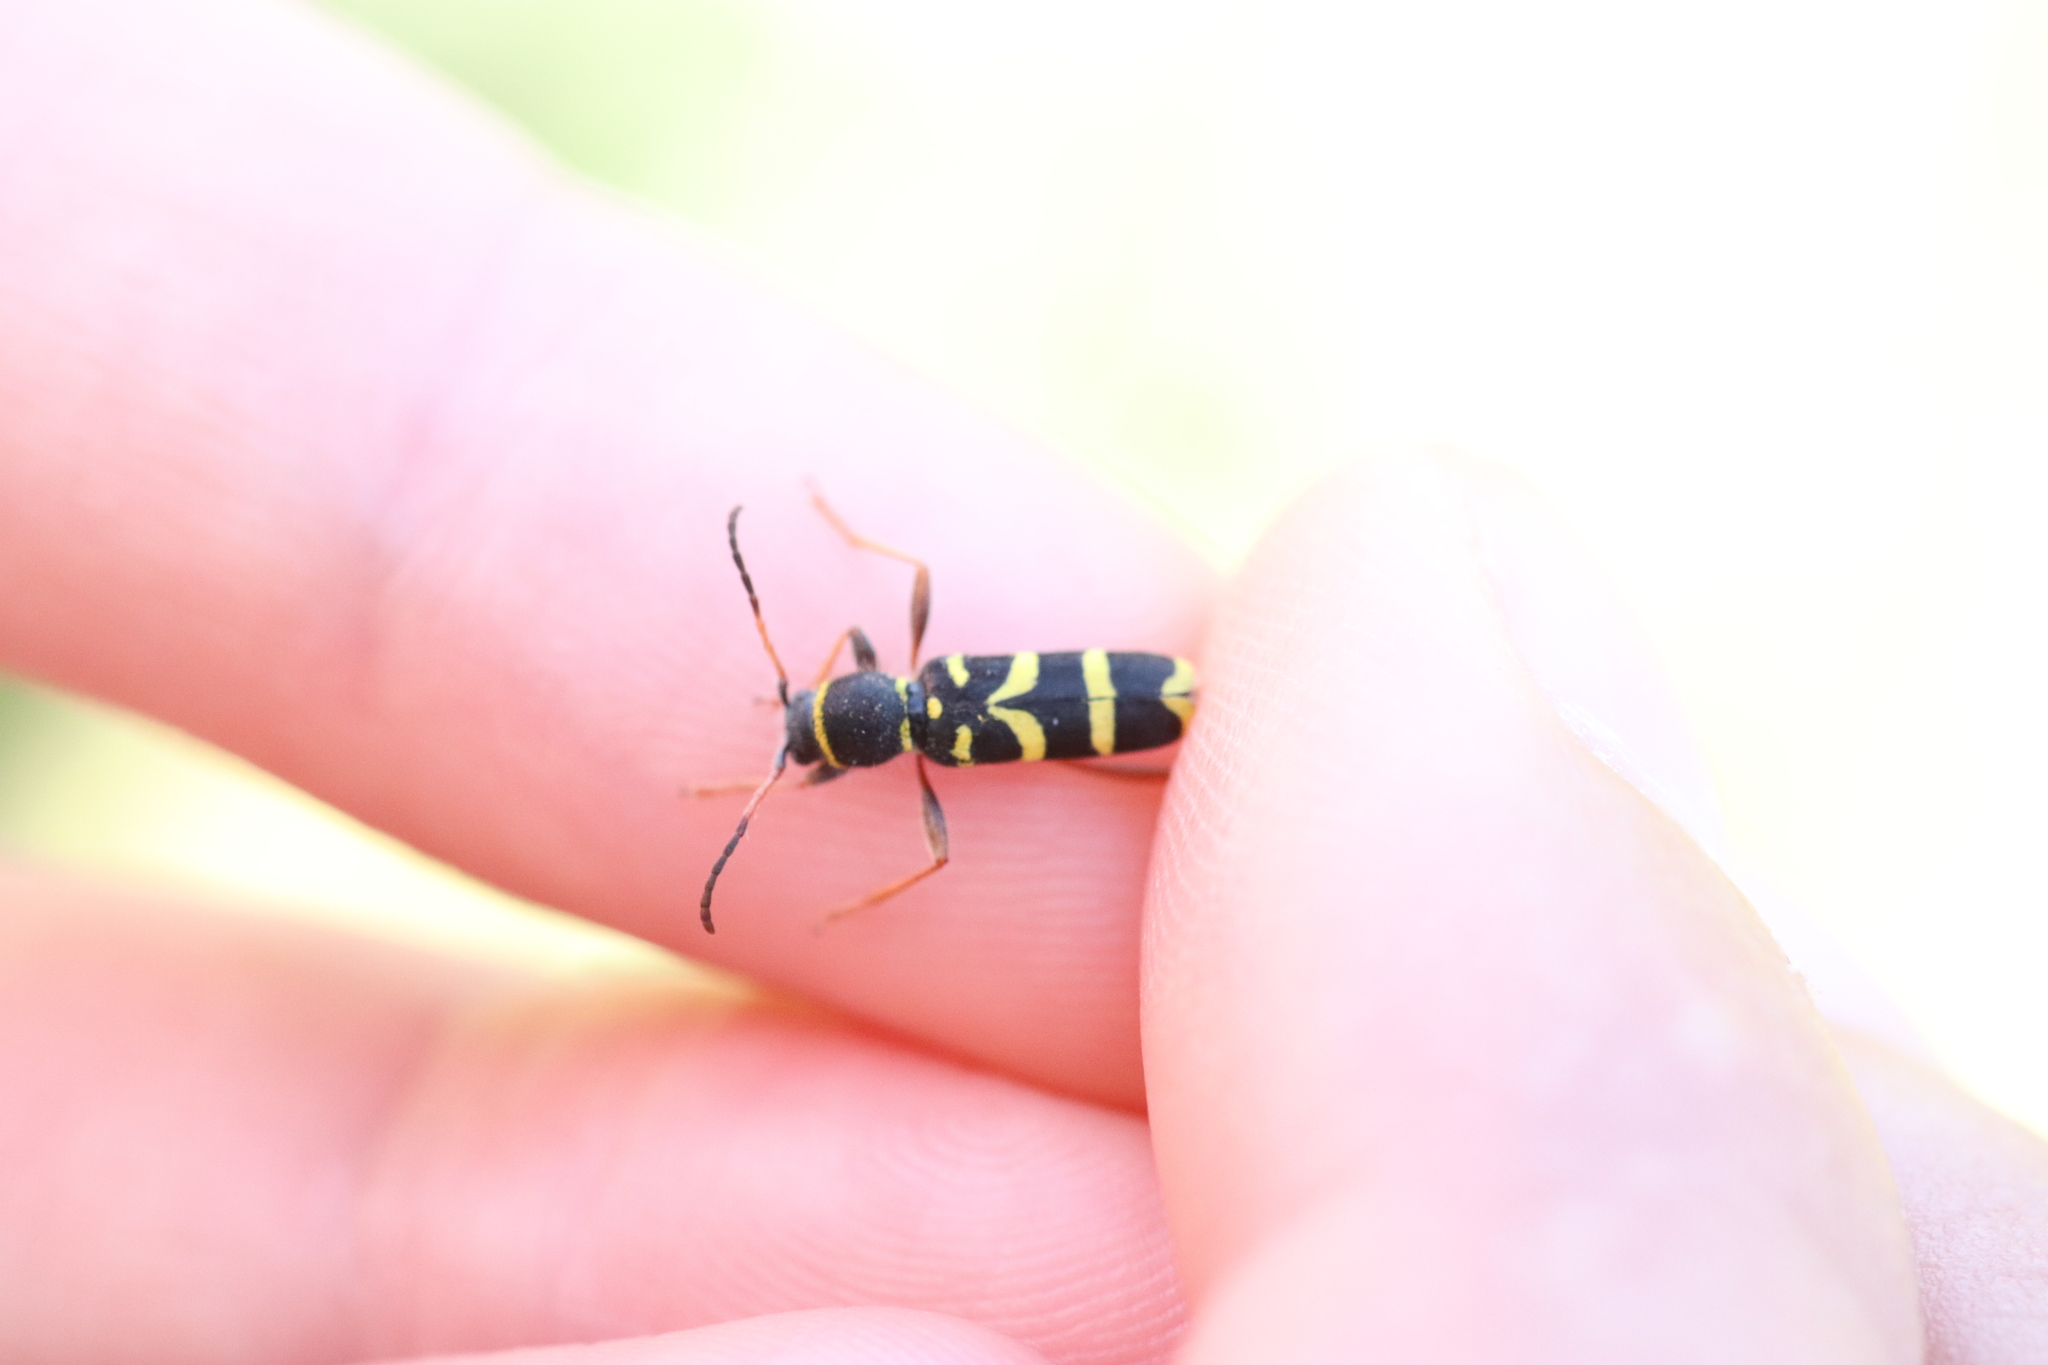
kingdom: Animalia
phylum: Arthropoda
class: Insecta
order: Coleoptera
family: Cerambycidae
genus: Clytus
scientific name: Clytus arietis
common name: Wasp beetle
